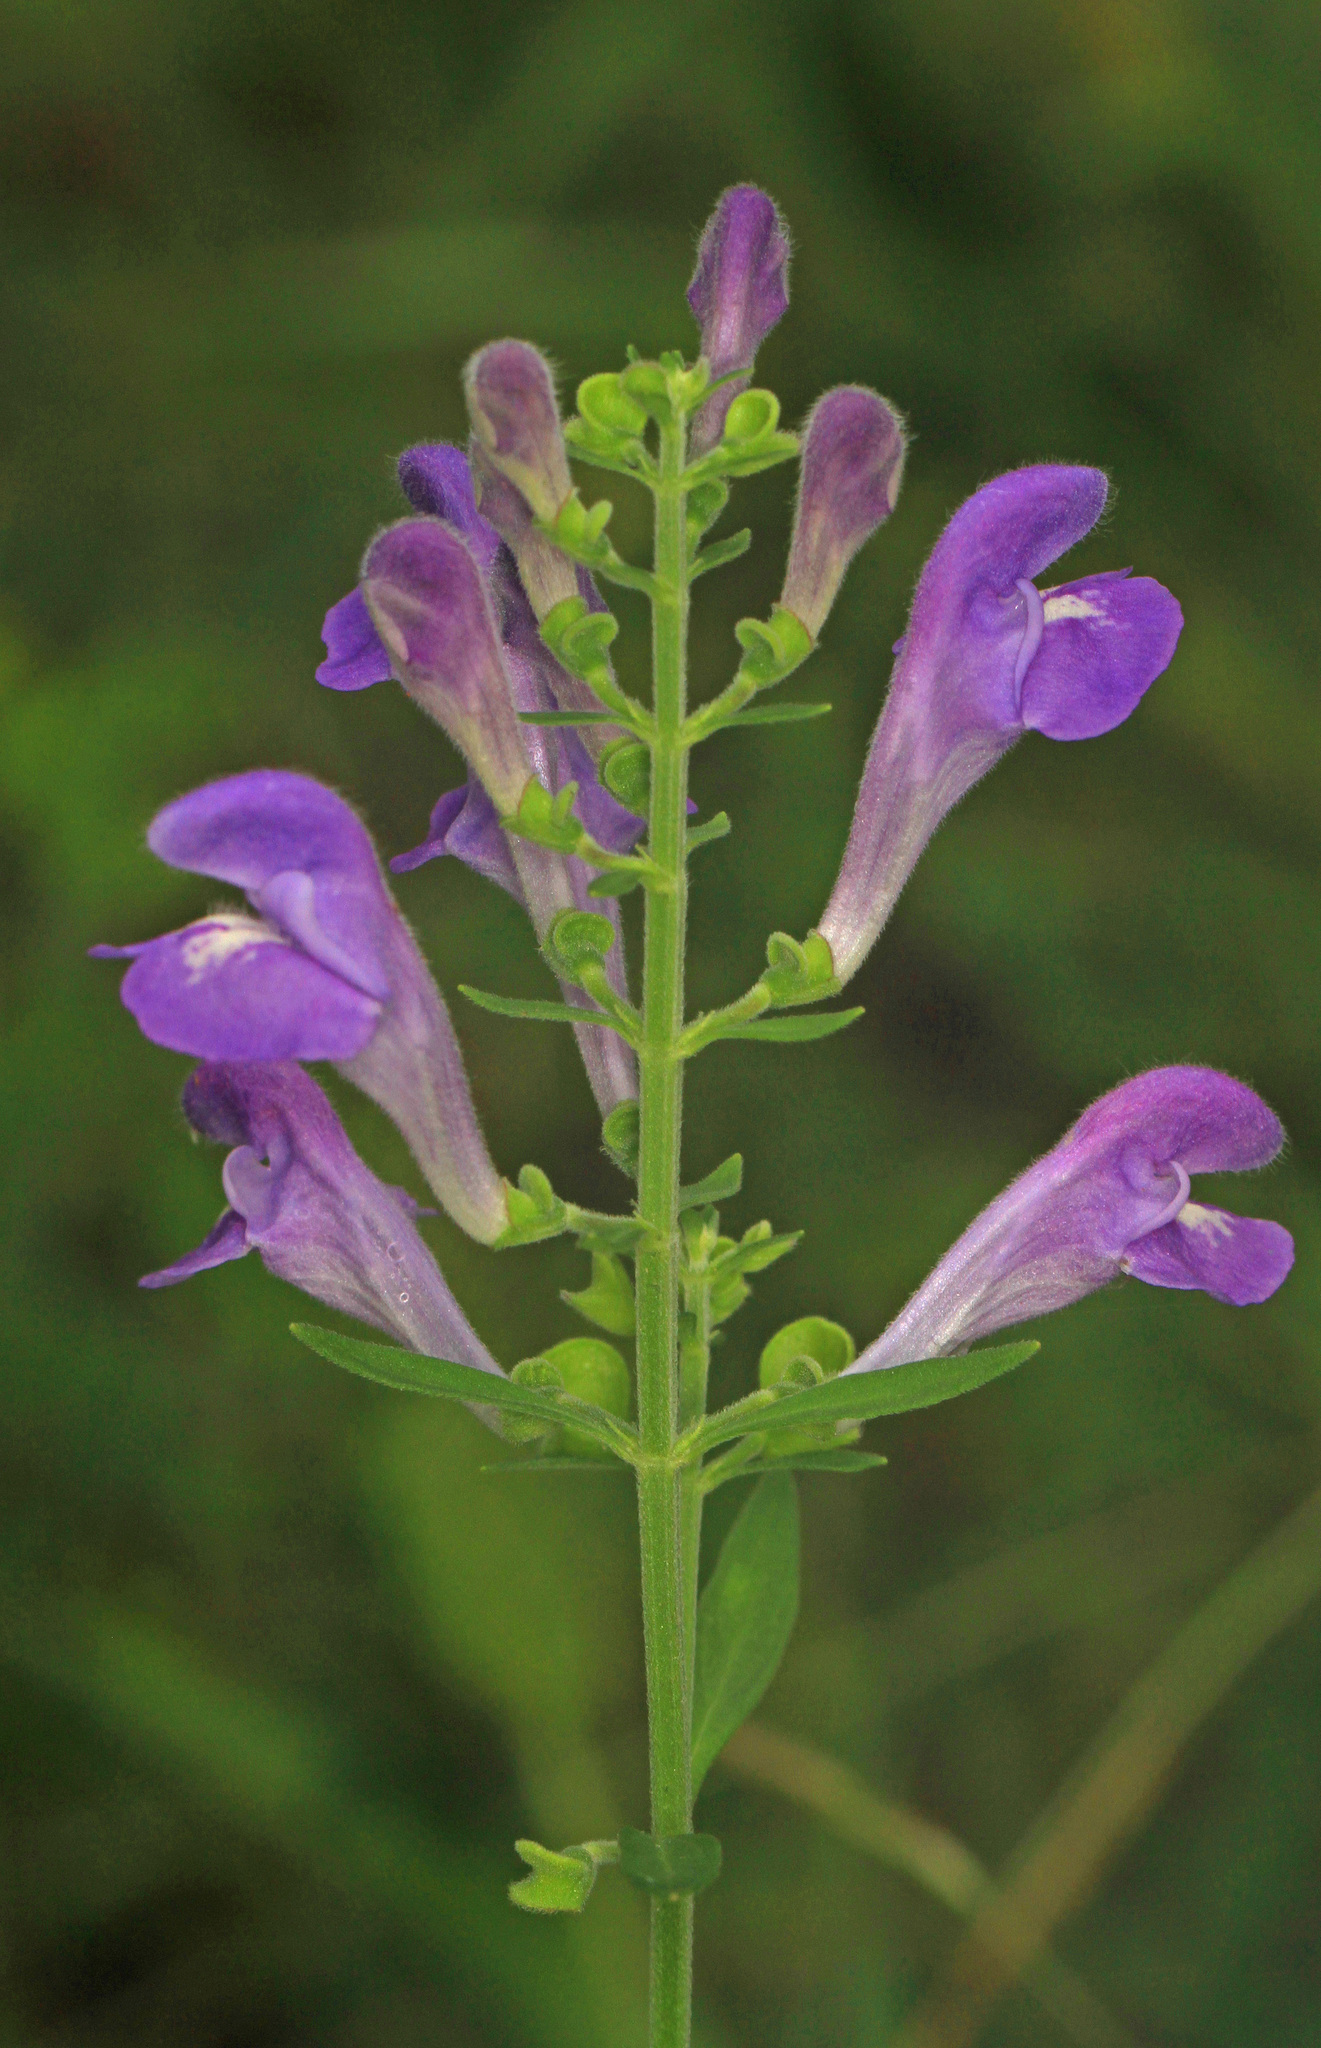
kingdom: Plantae
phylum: Tracheophyta
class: Magnoliopsida
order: Lamiales
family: Lamiaceae
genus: Scutellaria
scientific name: Scutellaria integrifolia
